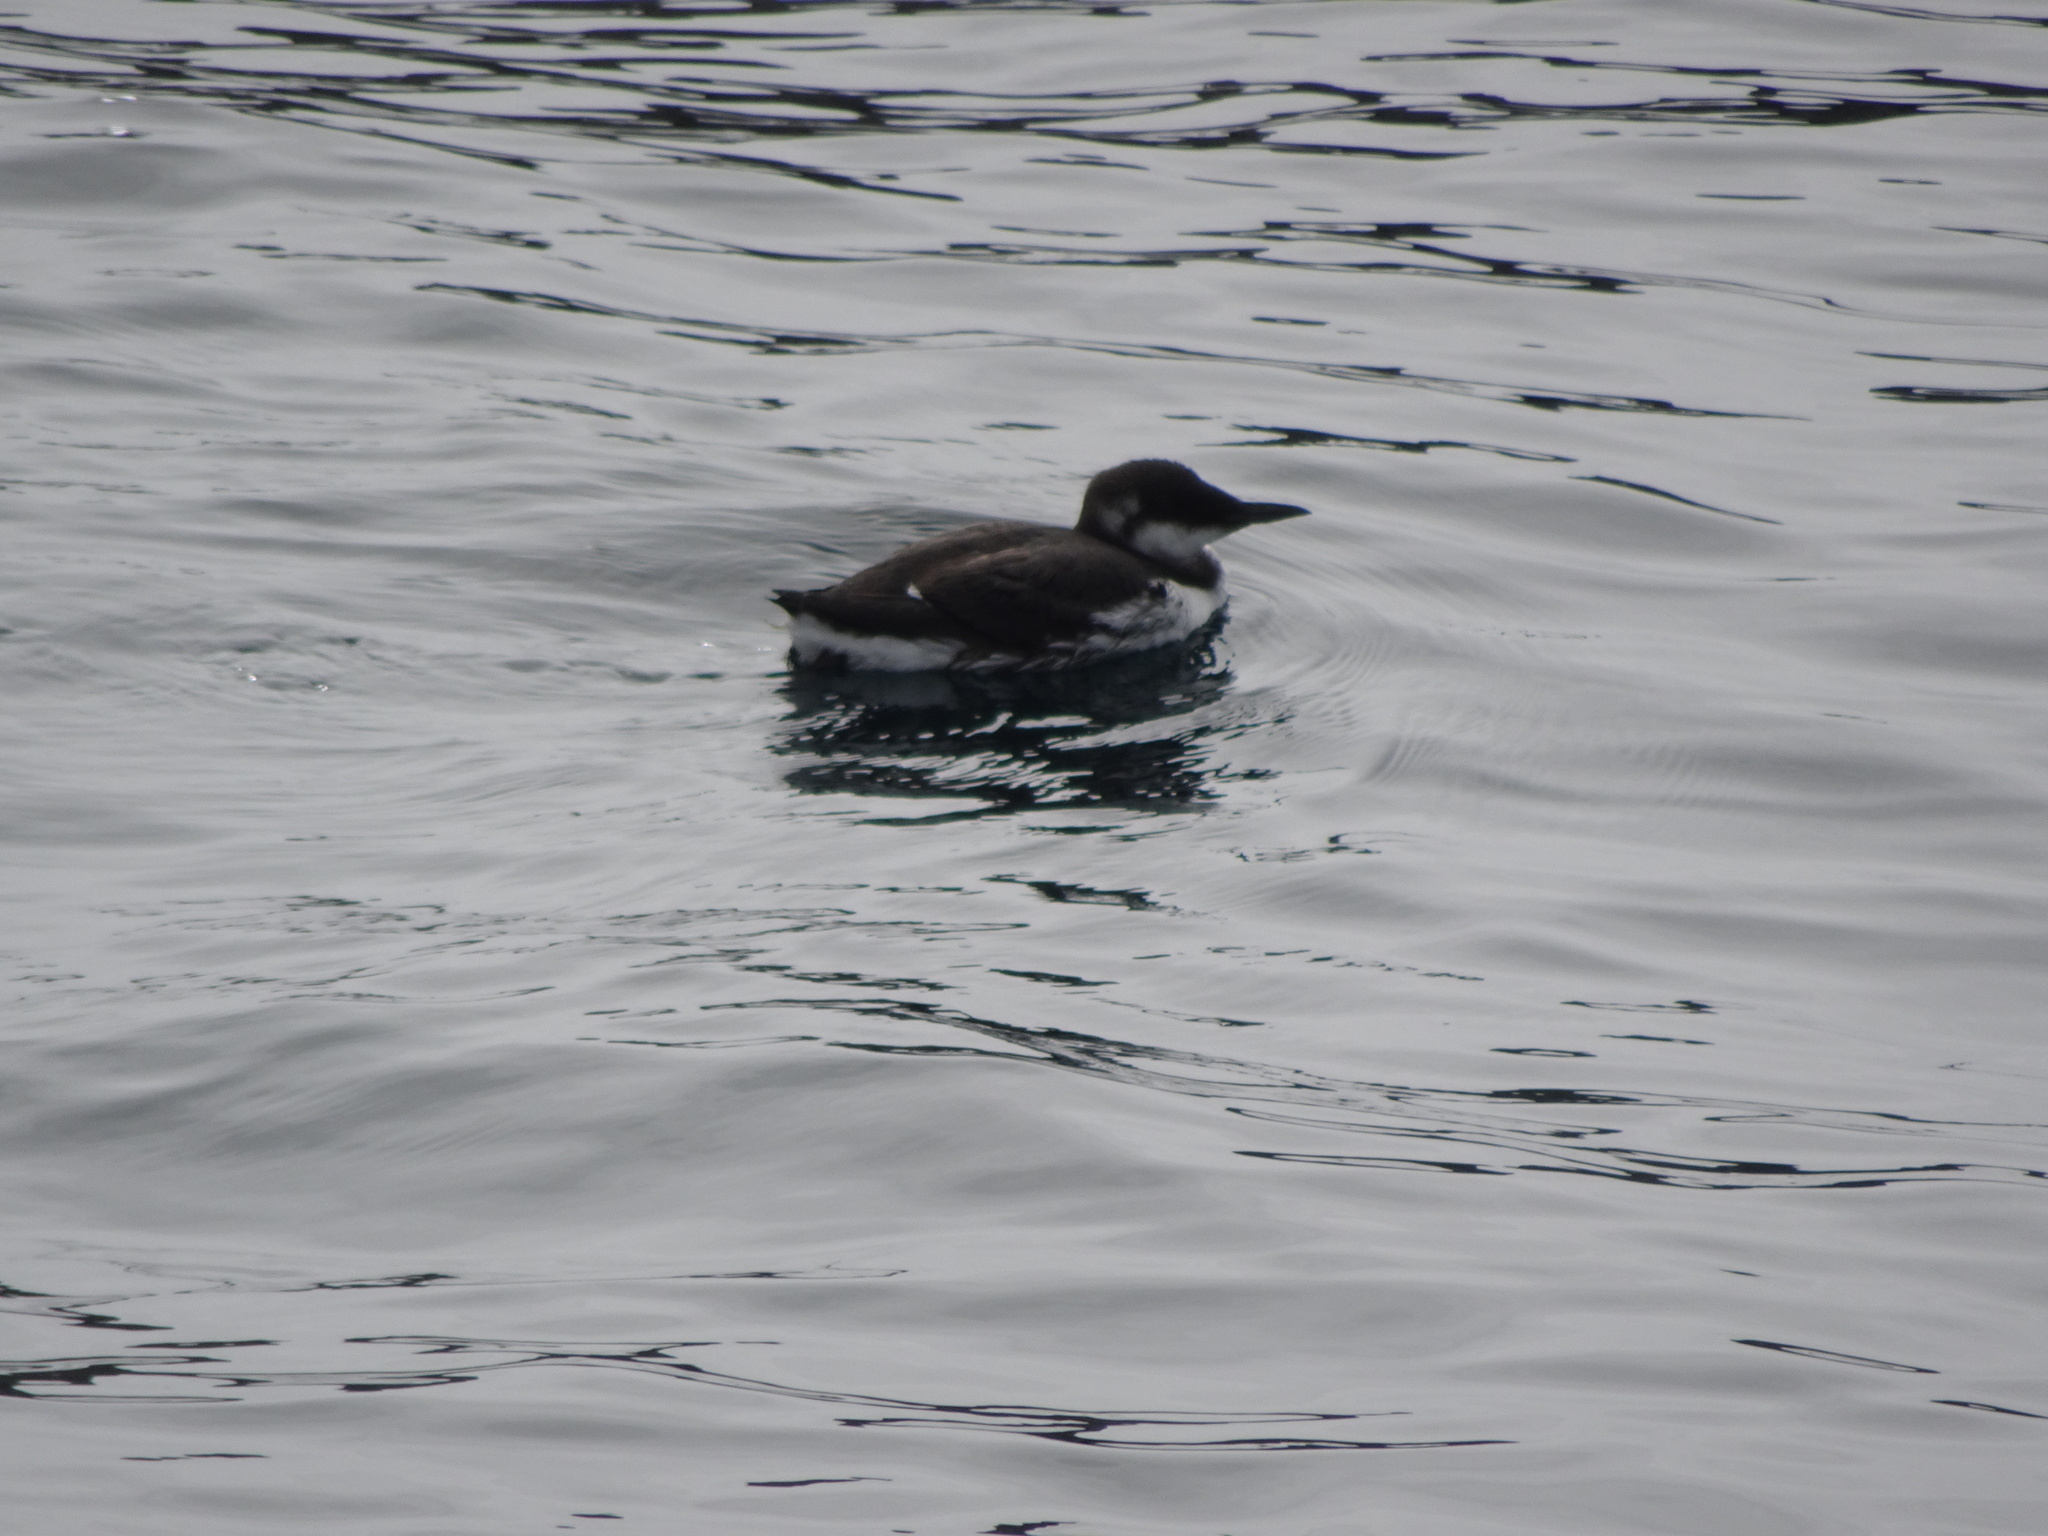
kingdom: Animalia
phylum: Chordata
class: Aves
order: Charadriiformes
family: Alcidae
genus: Uria
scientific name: Uria aalge
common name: Common murre
